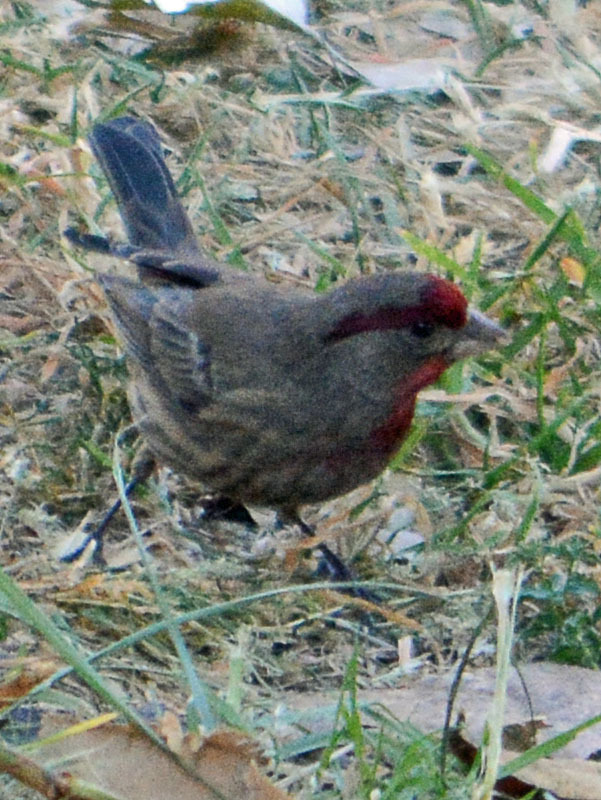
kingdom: Animalia
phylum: Chordata
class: Aves
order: Passeriformes
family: Fringillidae
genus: Haemorhous
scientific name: Haemorhous mexicanus
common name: House finch
